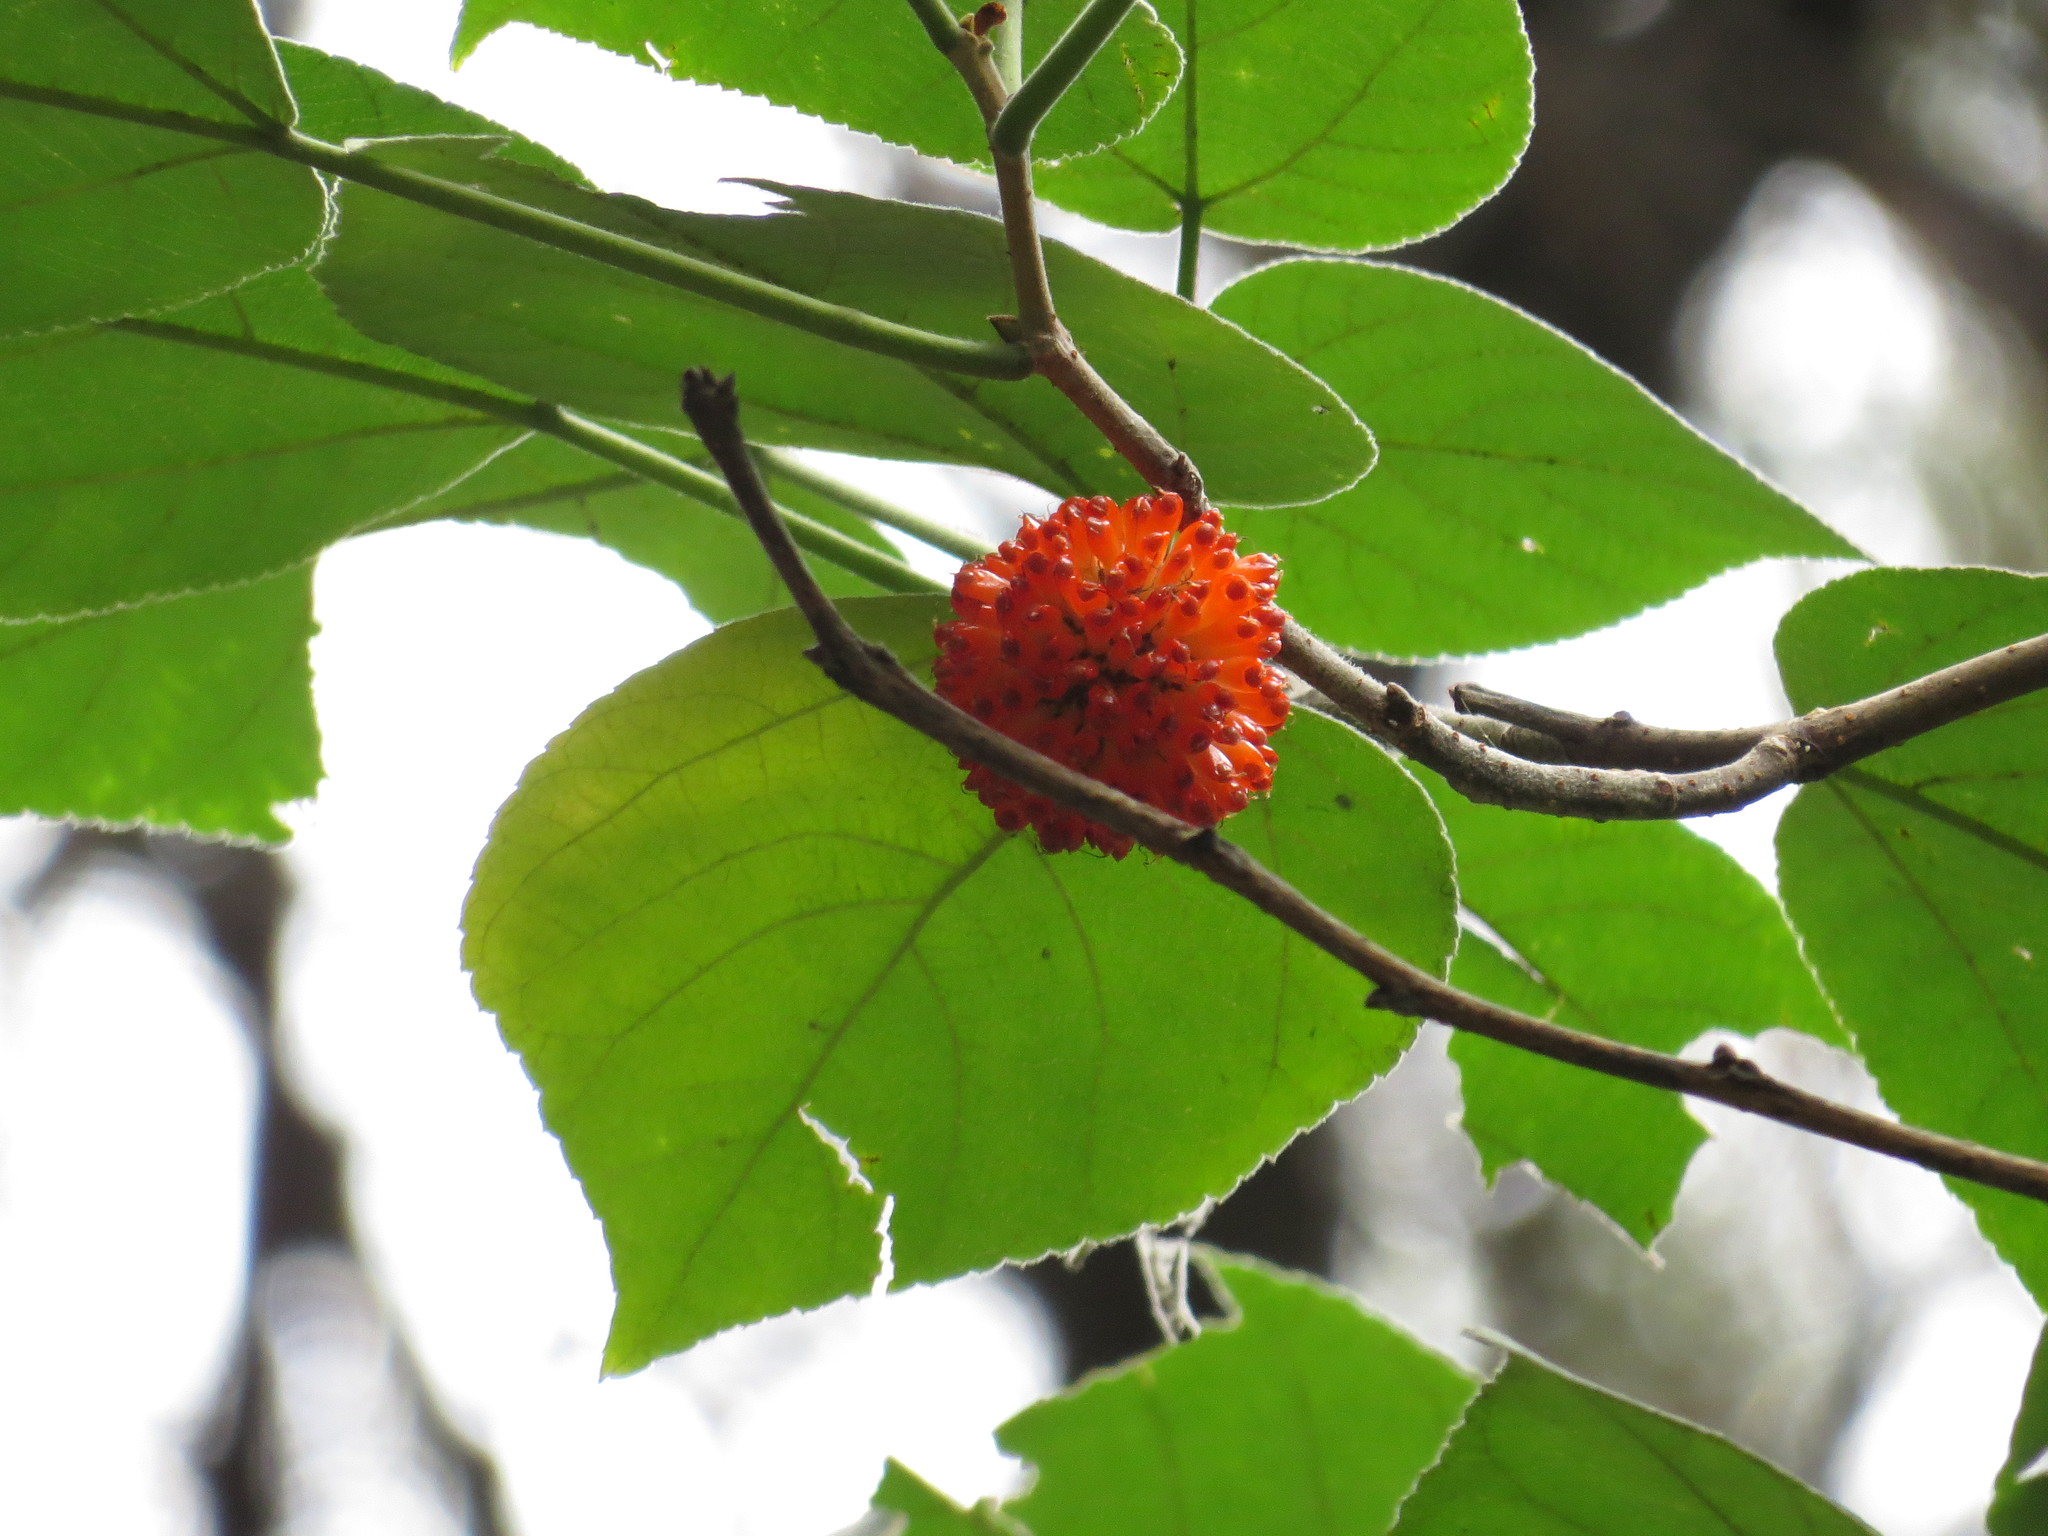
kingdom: Plantae
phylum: Tracheophyta
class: Magnoliopsida
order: Rosales
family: Moraceae
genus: Broussonetia
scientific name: Broussonetia papyrifera
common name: Paper mulberry
